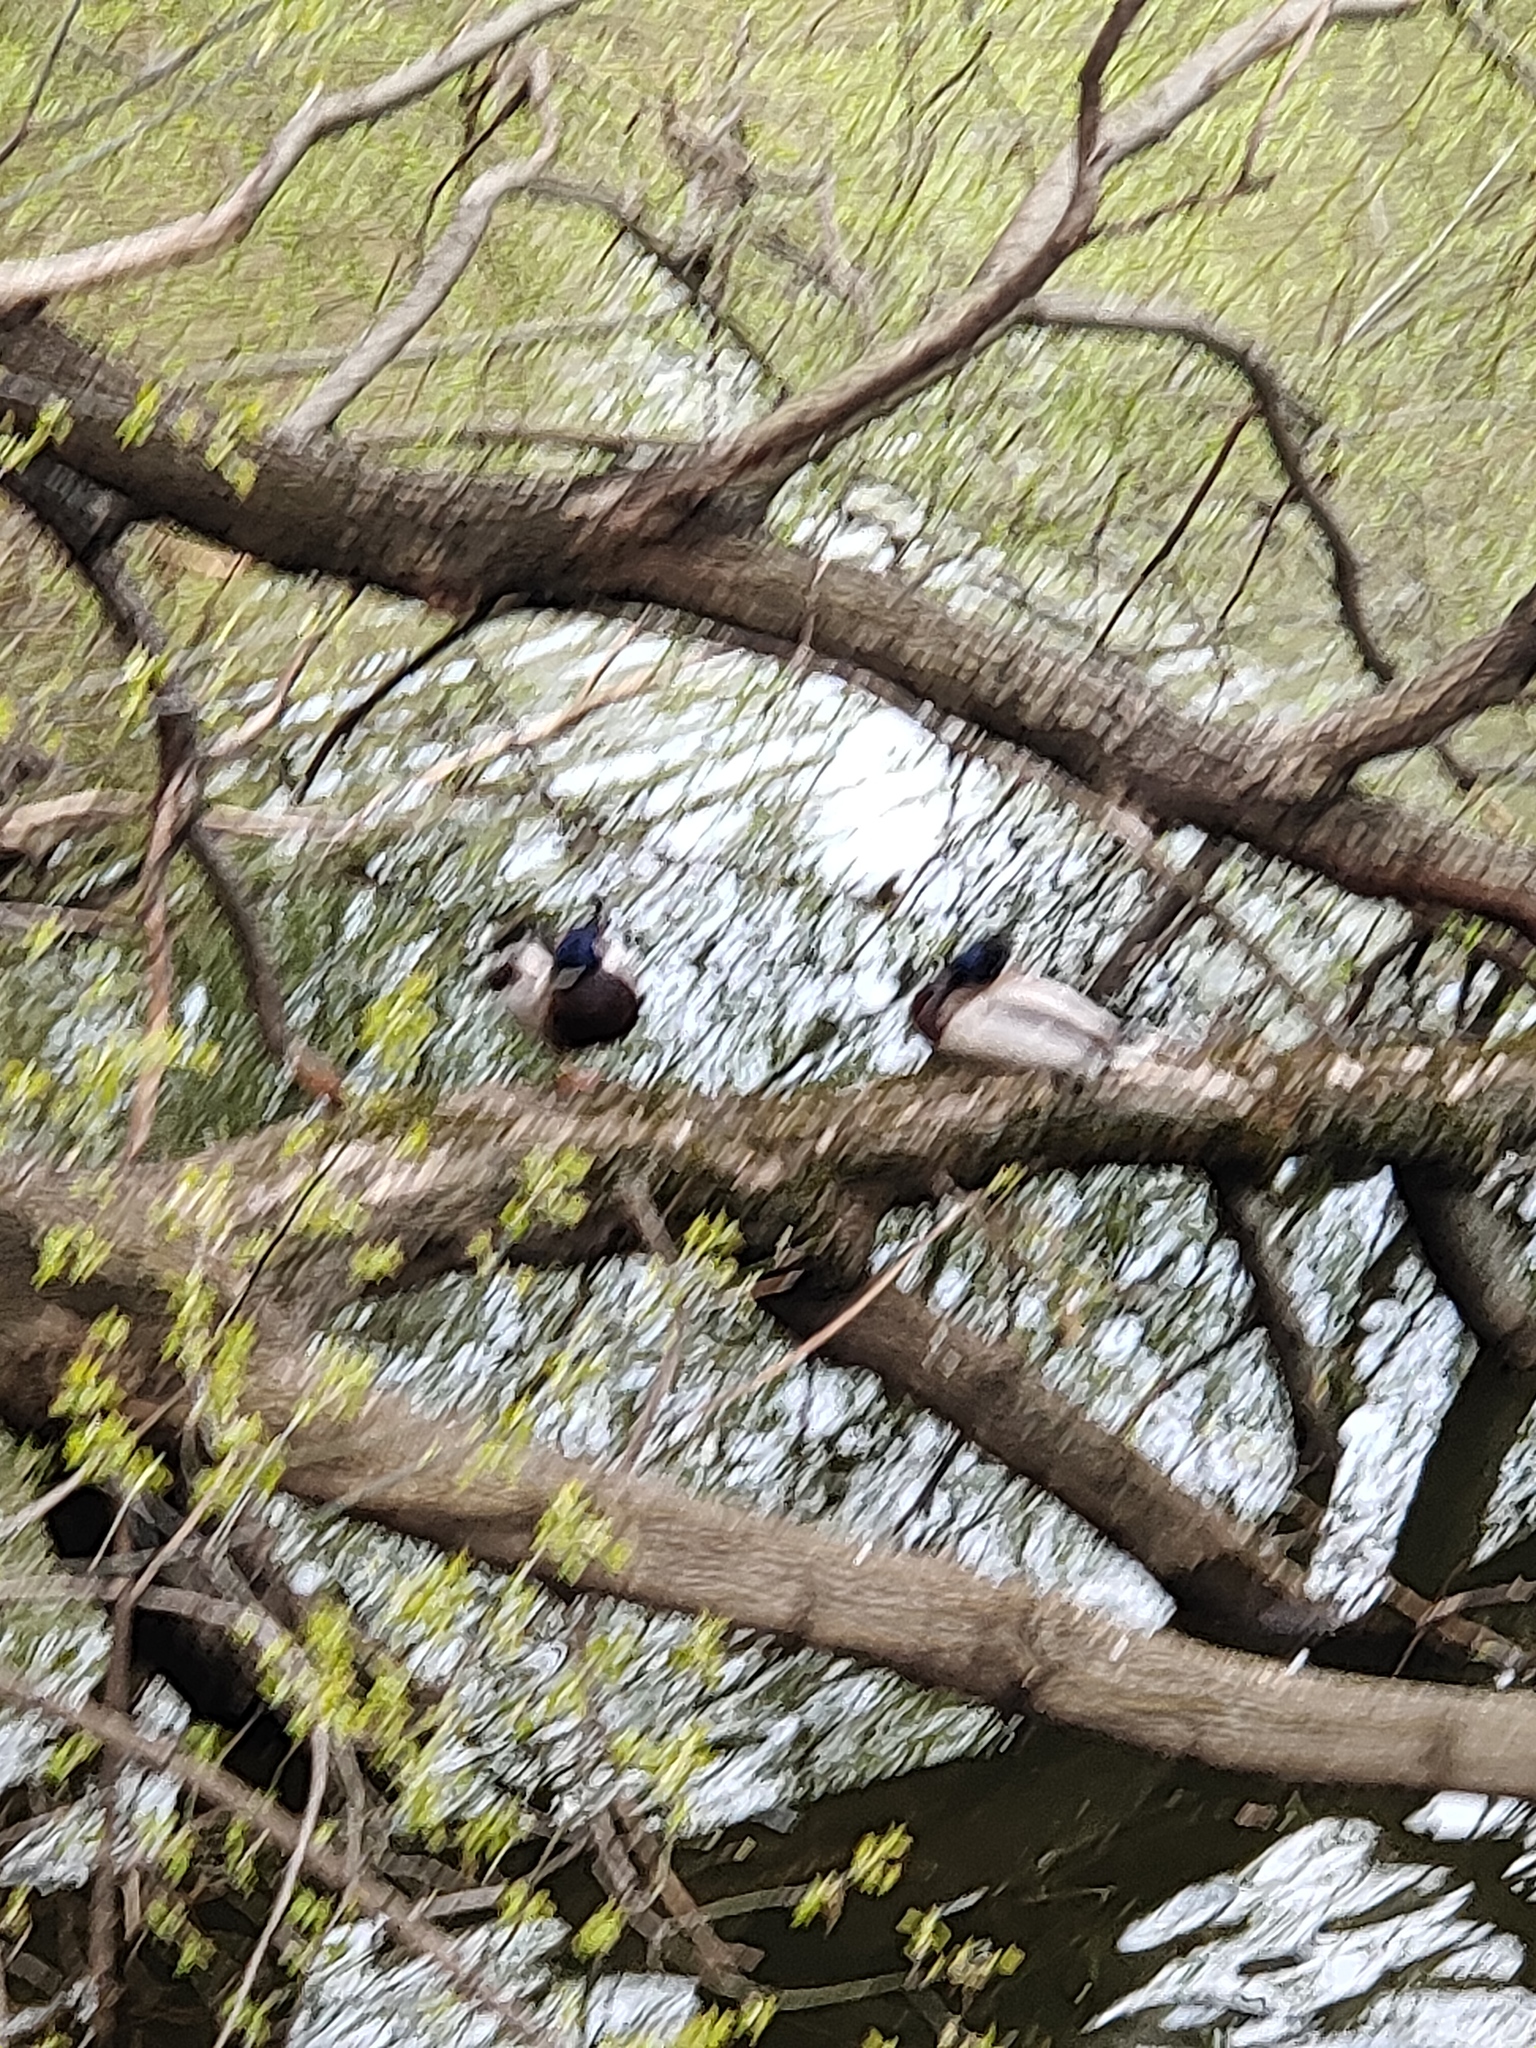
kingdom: Animalia
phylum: Chordata
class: Aves
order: Anseriformes
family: Anatidae
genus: Anas
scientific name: Anas platyrhynchos
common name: Mallard
